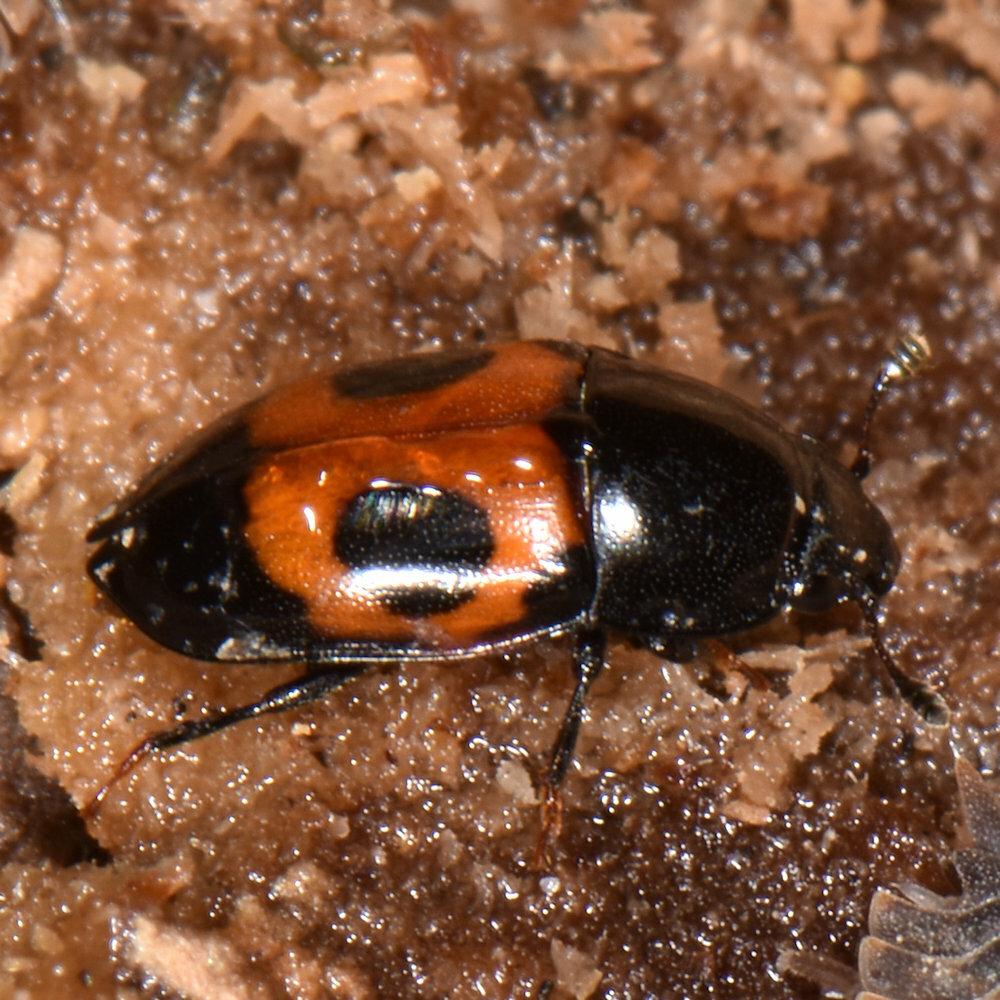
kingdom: Animalia
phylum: Arthropoda
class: Insecta
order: Coleoptera
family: Nitidulidae
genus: Glischrochilus
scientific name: Glischrochilus sanguinolentus
